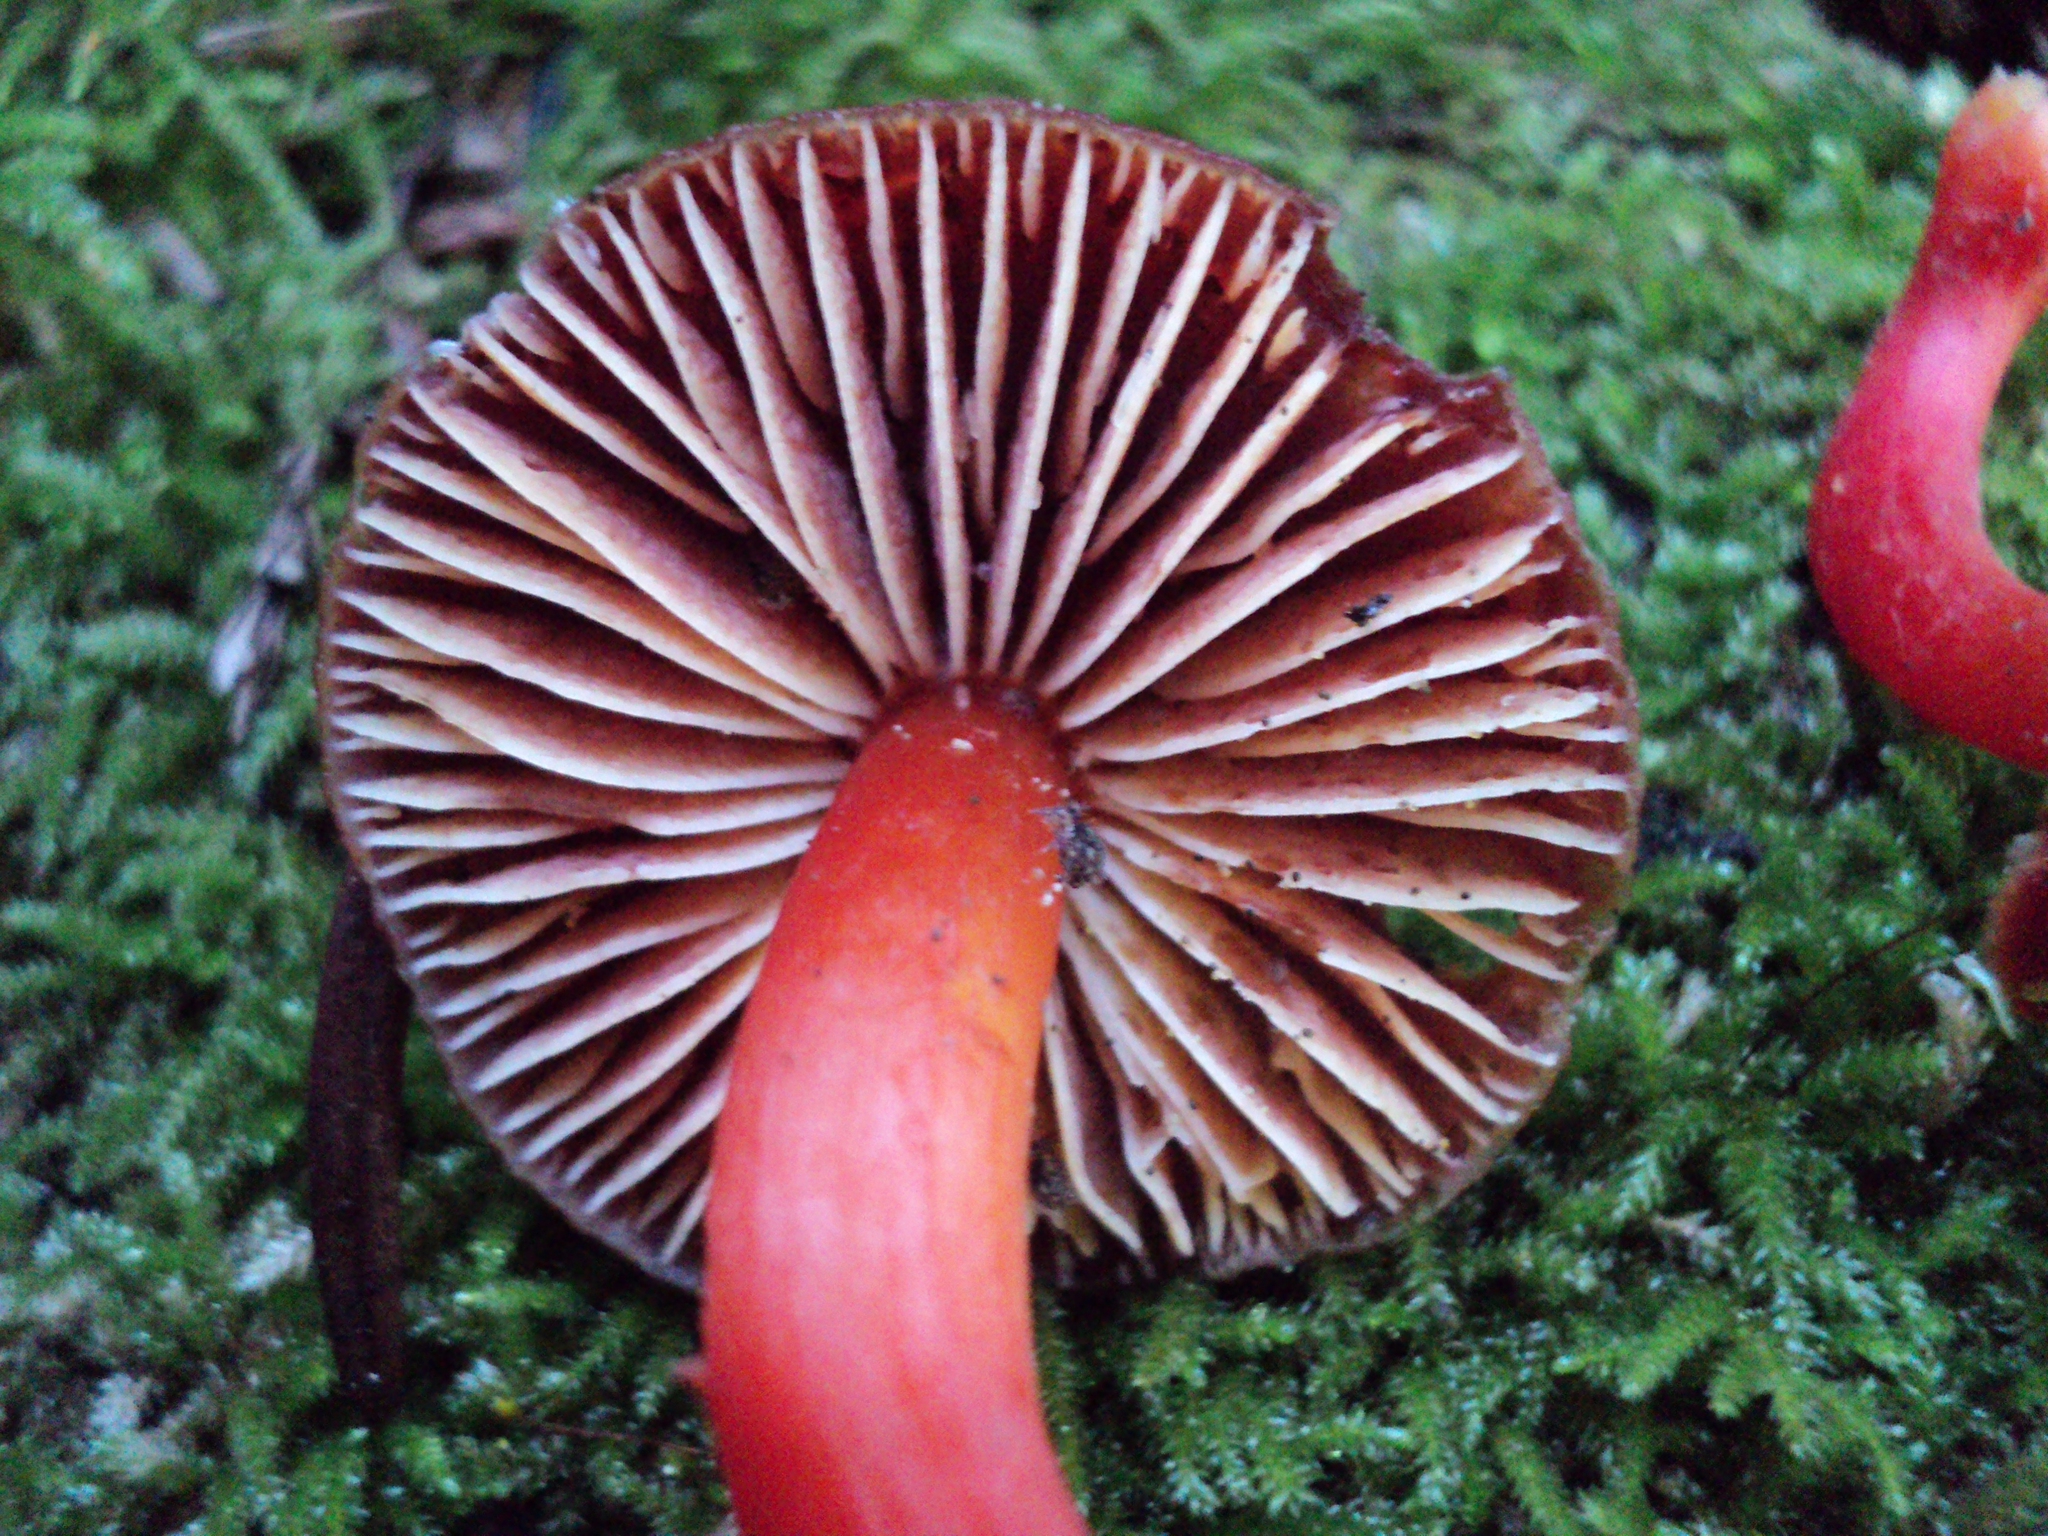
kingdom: Fungi
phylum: Basidiomycota
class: Agaricomycetes
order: Agaricales
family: Hygrophoraceae
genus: Hygrocybe
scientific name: Hygrocybe coccinea
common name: Scarlet hood
